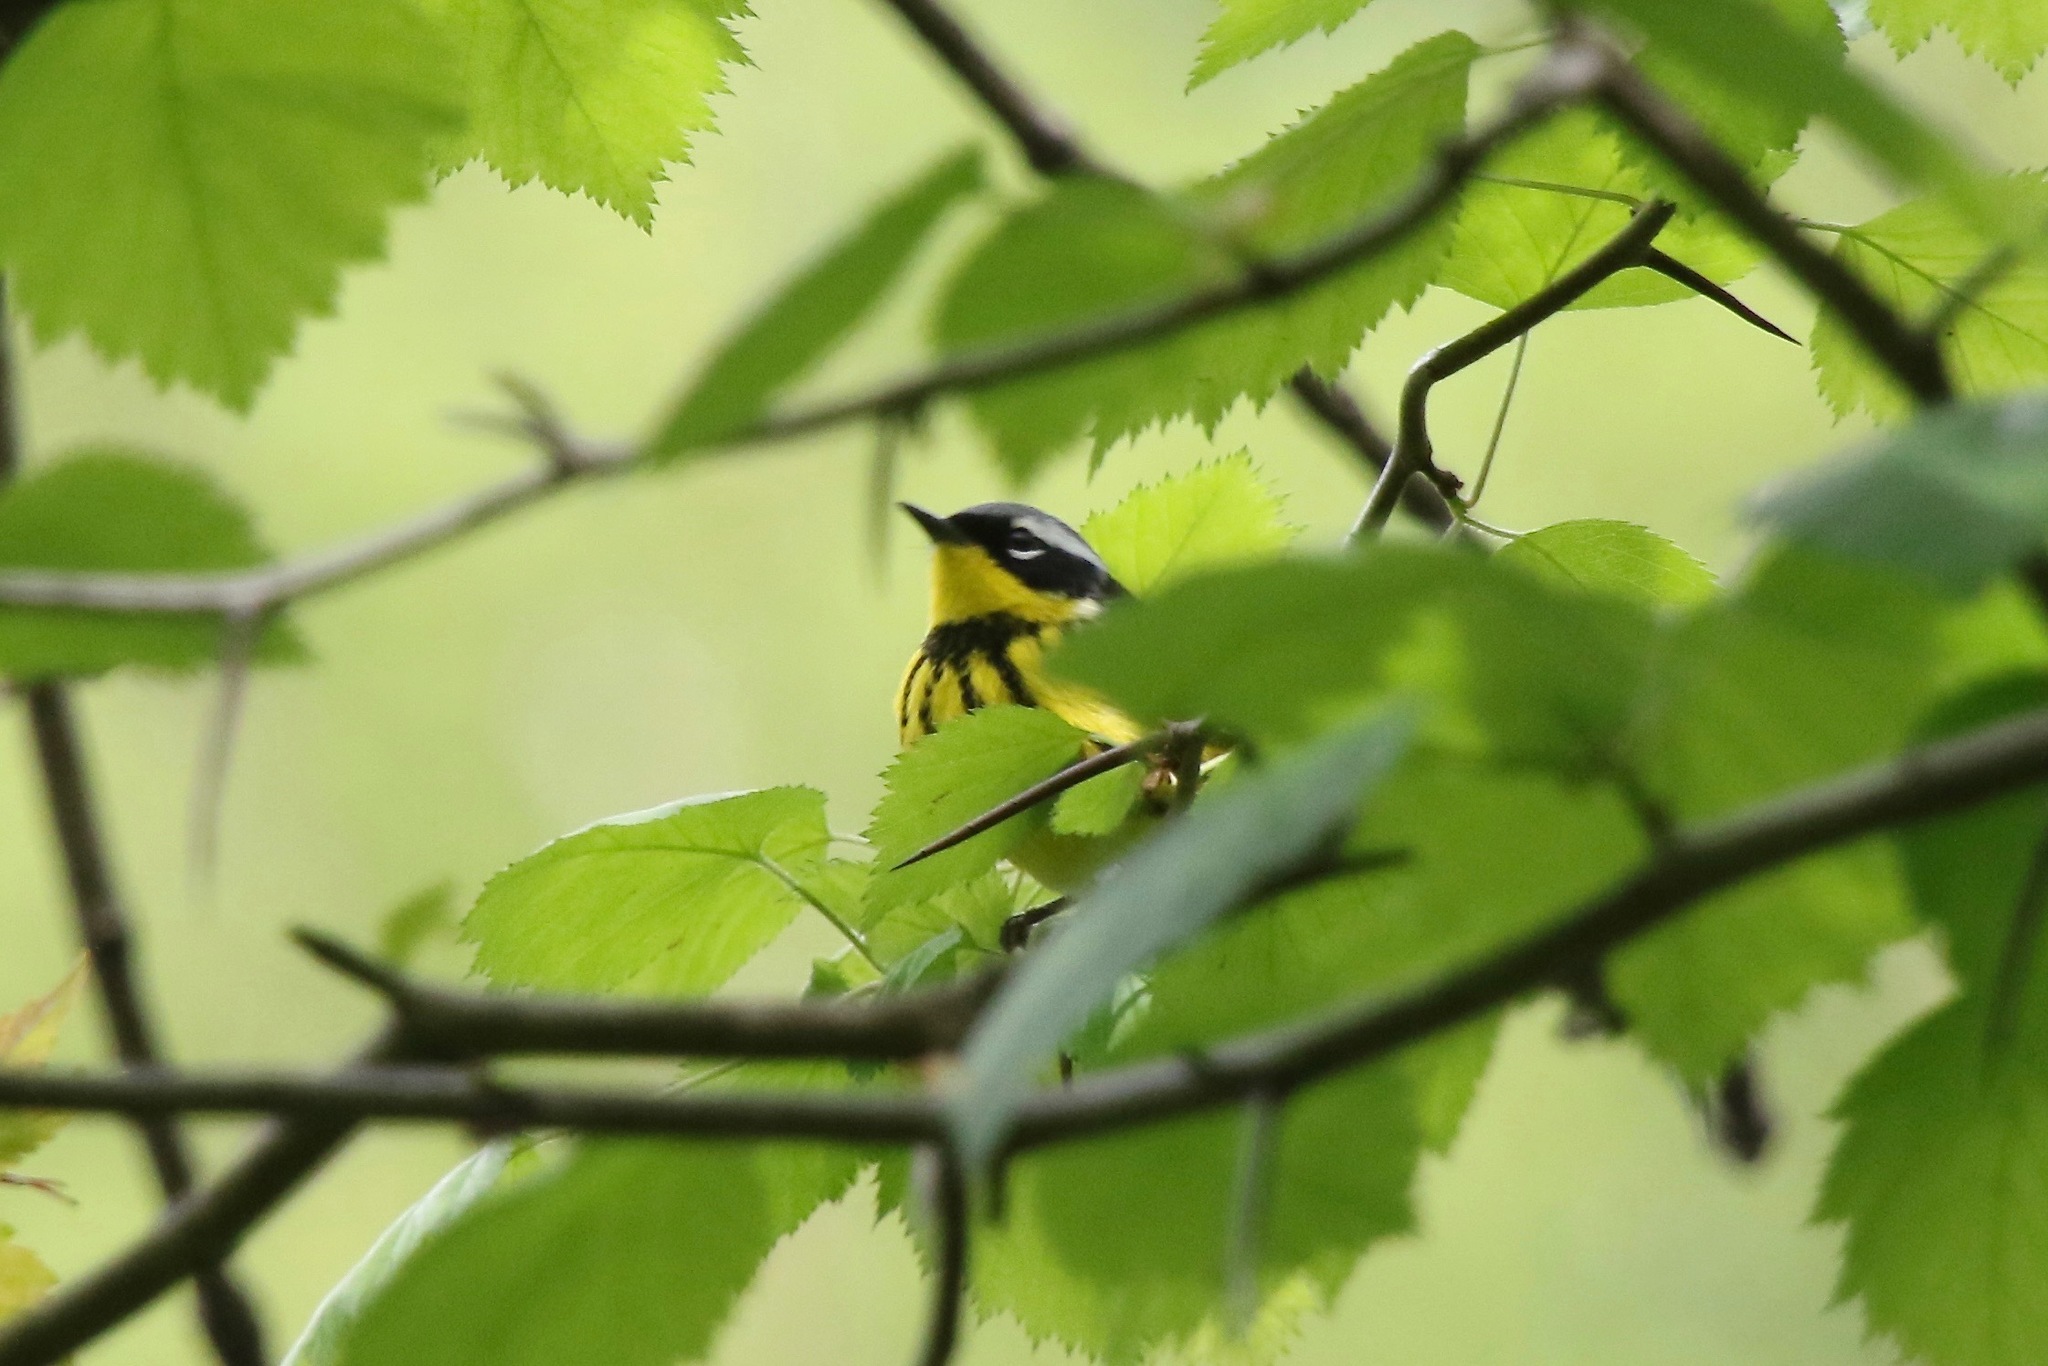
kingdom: Animalia
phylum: Chordata
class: Aves
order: Passeriformes
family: Parulidae
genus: Setophaga
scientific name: Setophaga magnolia
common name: Magnolia warbler
